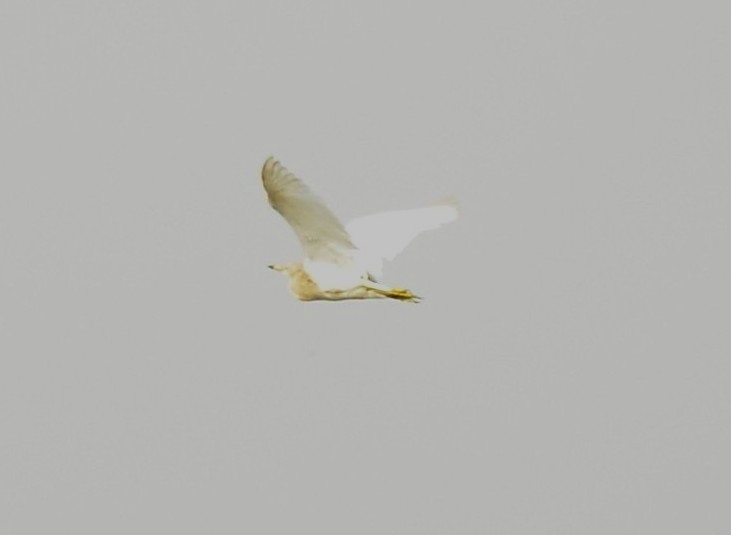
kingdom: Animalia
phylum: Chordata
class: Aves
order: Pelecaniformes
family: Ardeidae
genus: Ardeola
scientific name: Ardeola grayii
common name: Indian pond heron
